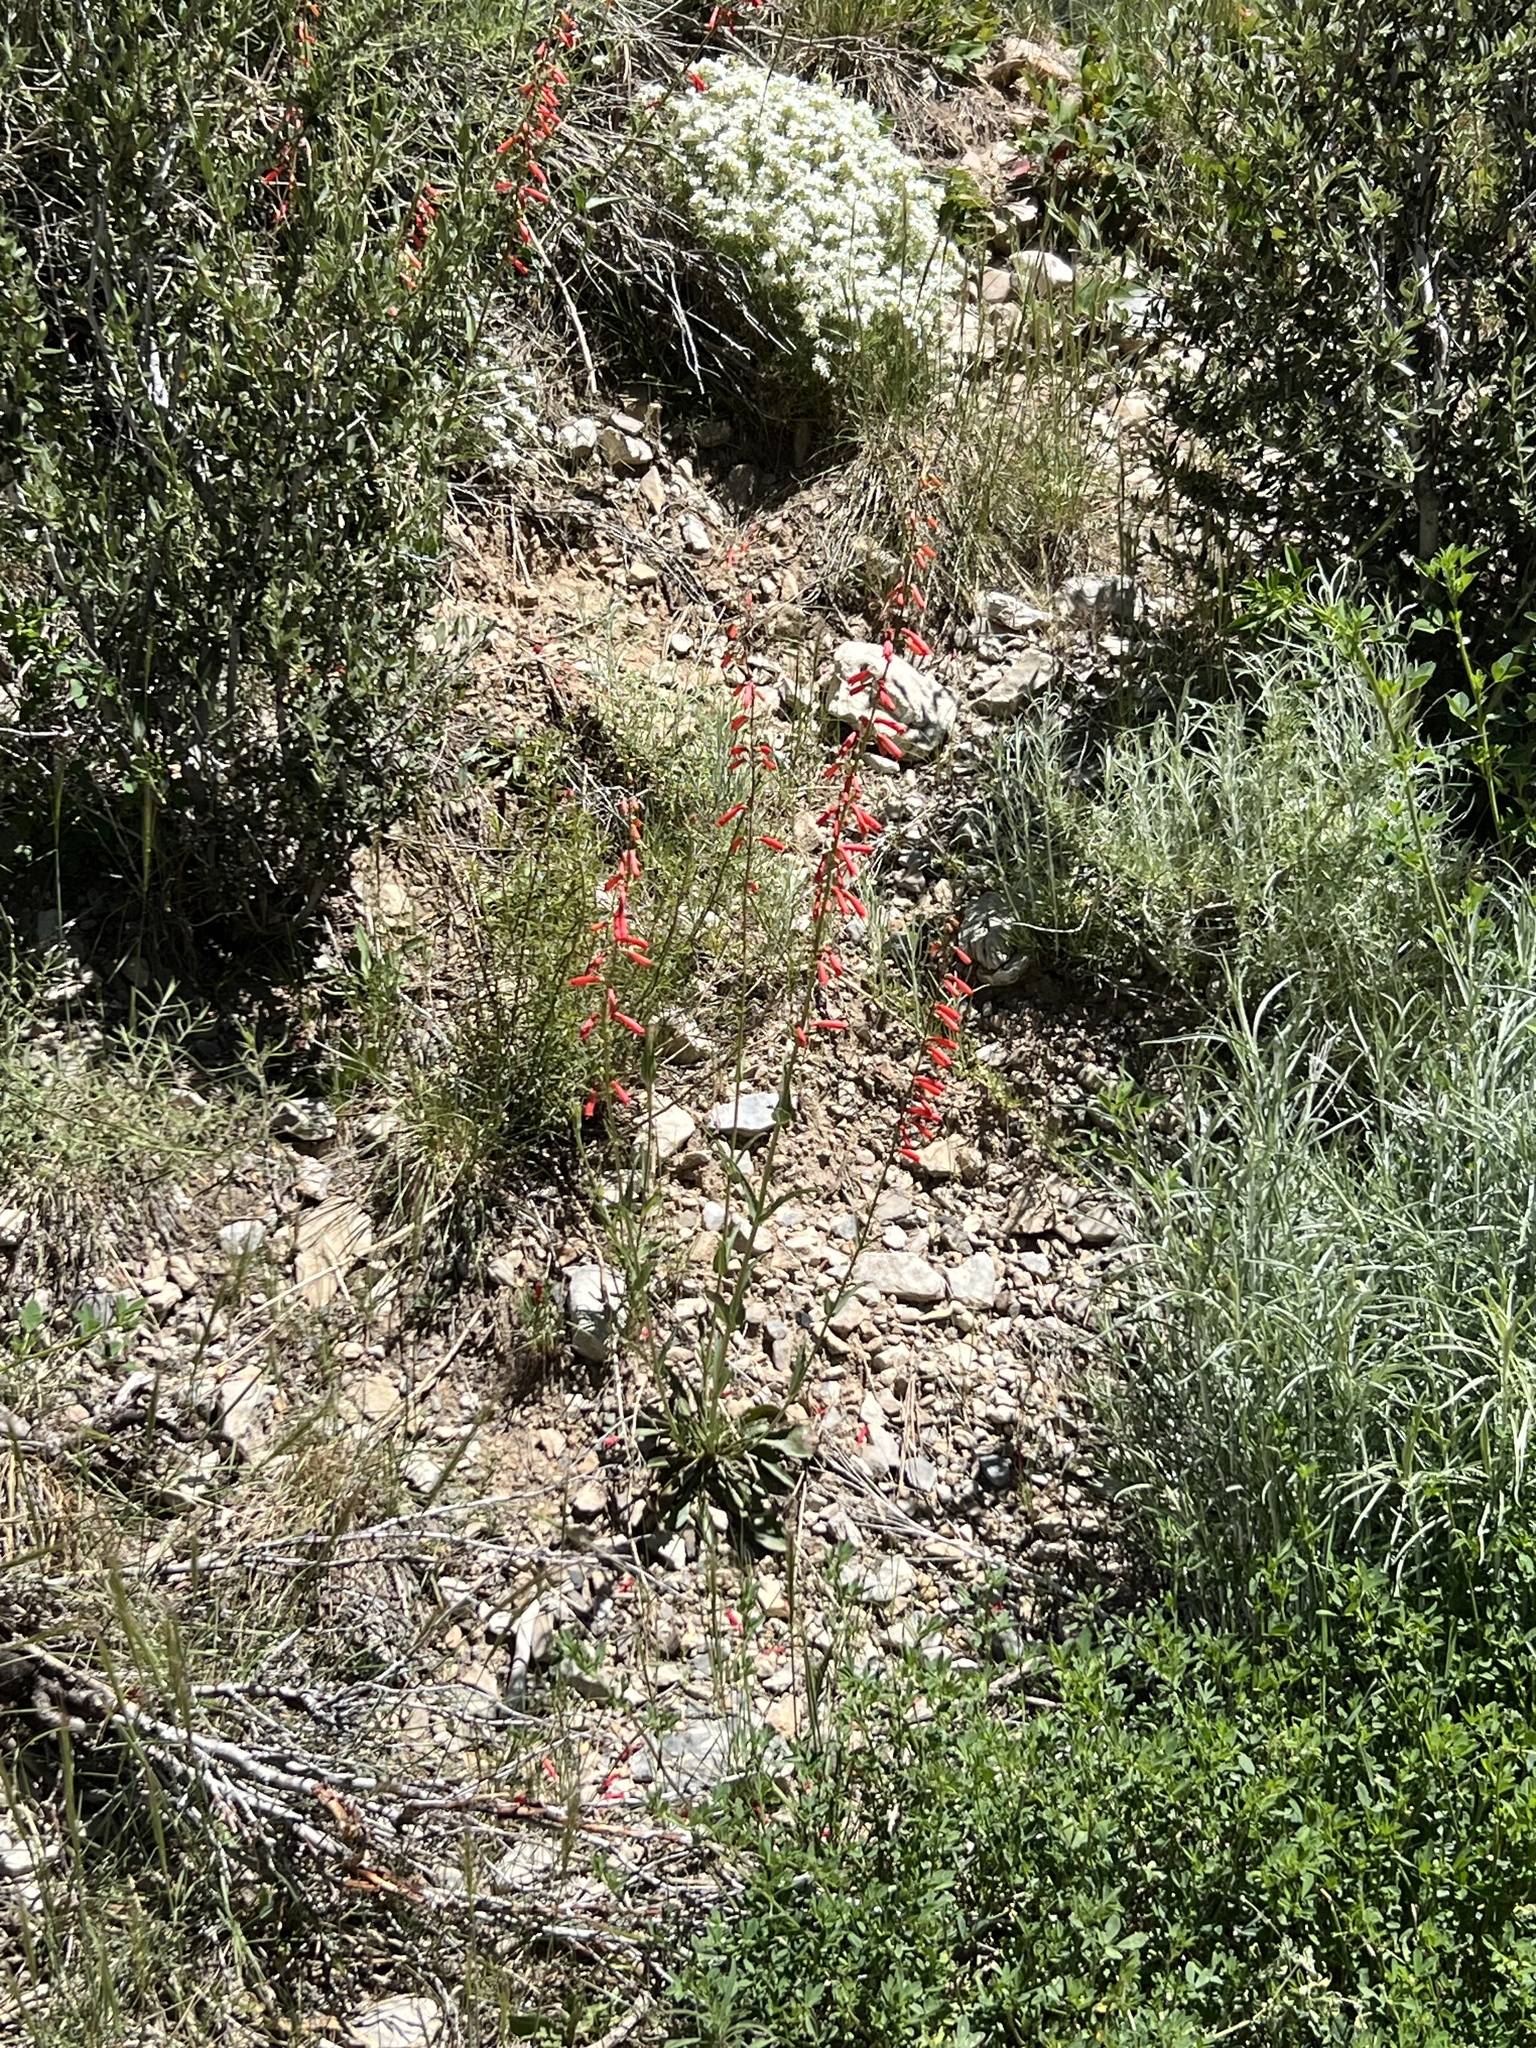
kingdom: Plantae
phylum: Tracheophyta
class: Magnoliopsida
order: Lamiales
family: Plantaginaceae
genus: Penstemon
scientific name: Penstemon eatonii
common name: Eaton's penstemon
